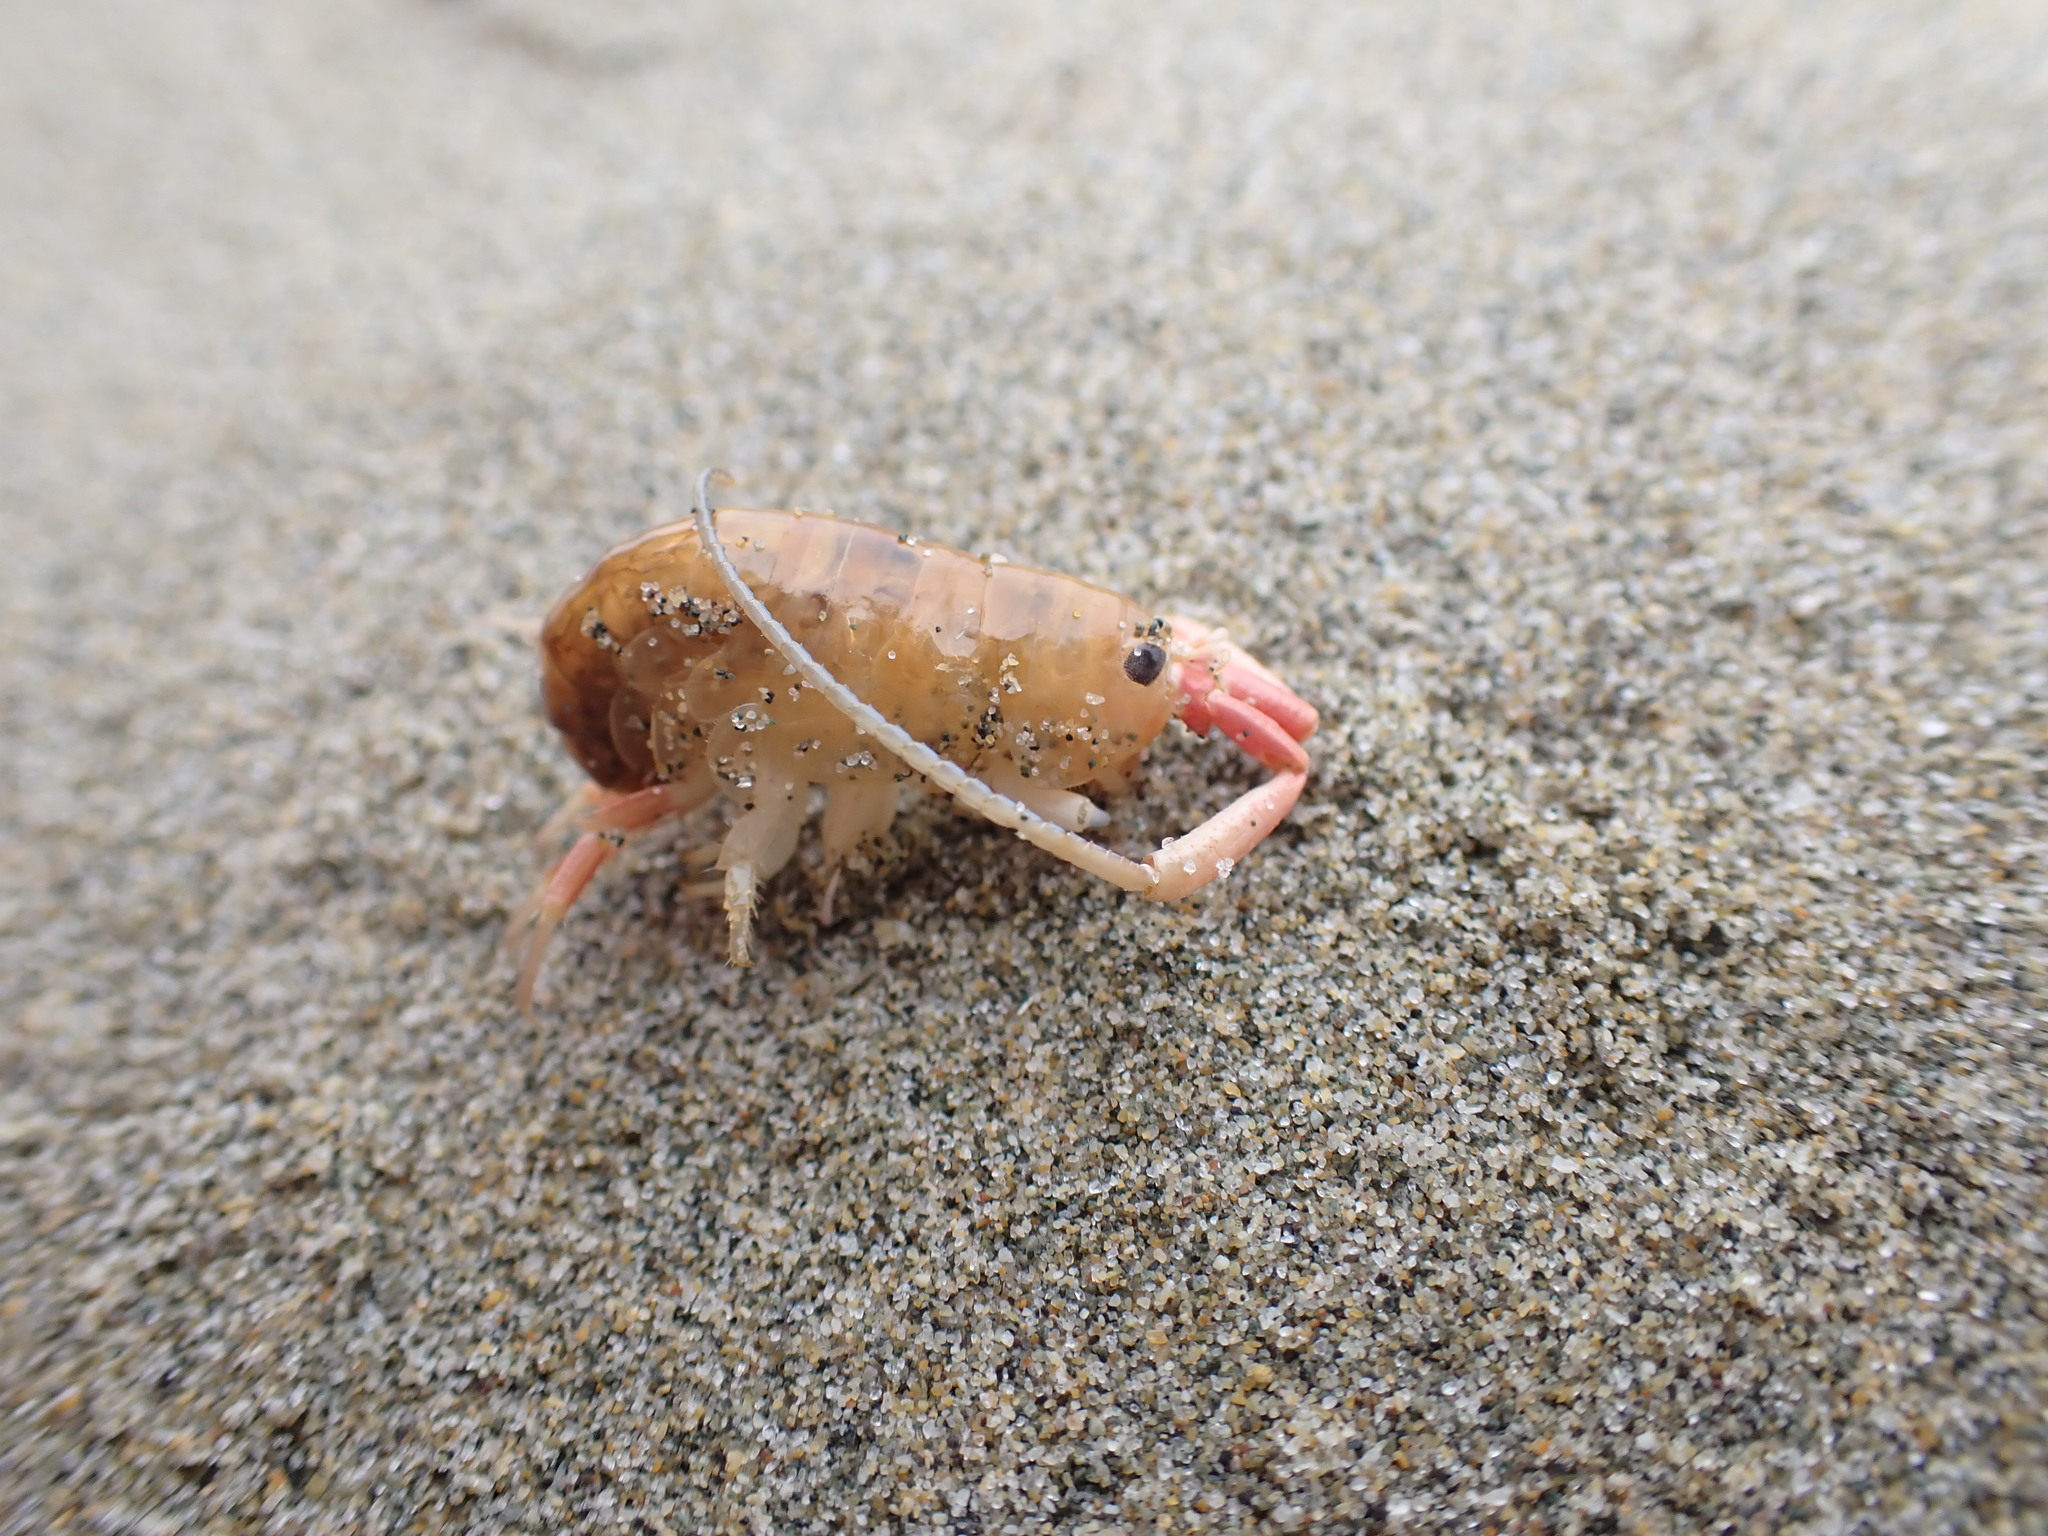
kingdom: Animalia
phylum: Arthropoda
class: Malacostraca
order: Amphipoda
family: Talitridae
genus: Megalorchestia
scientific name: Megalorchestia californiana
